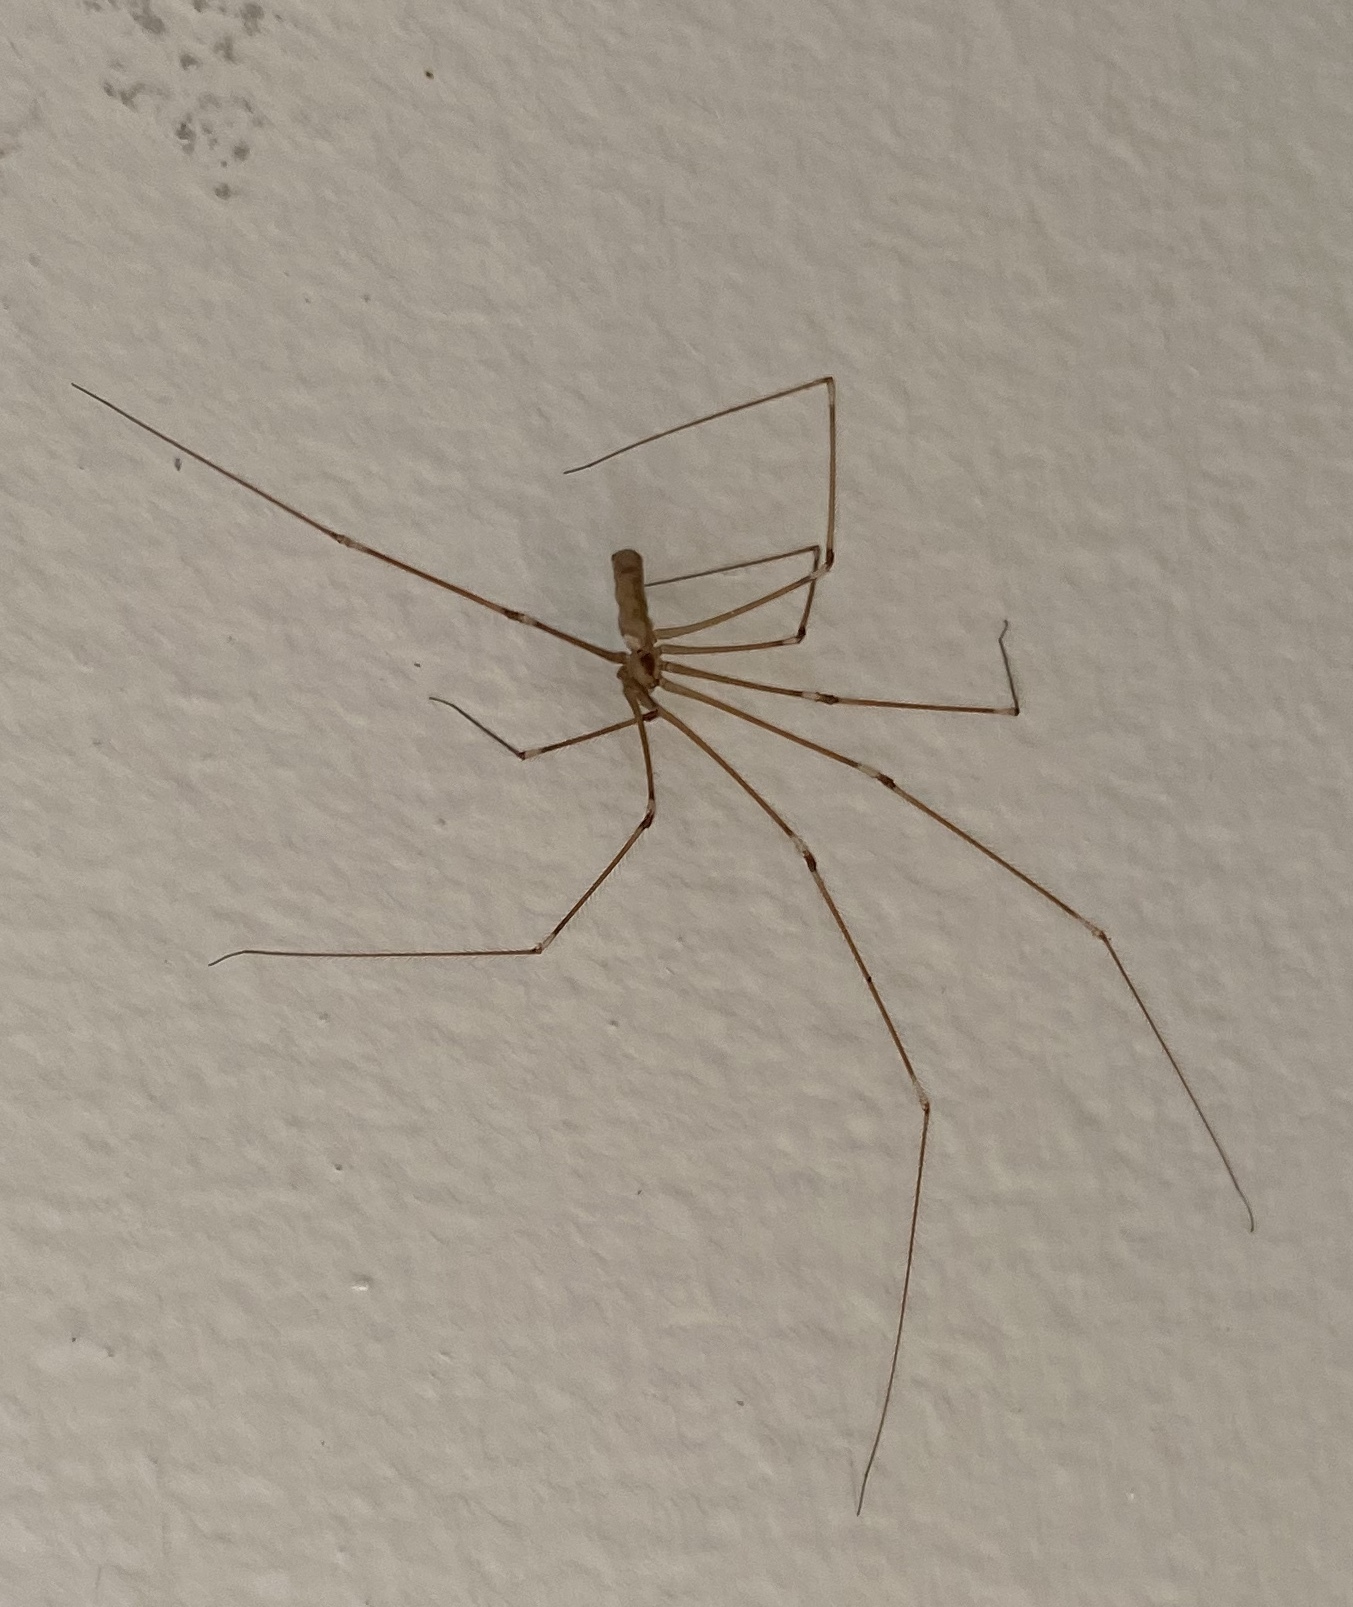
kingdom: Animalia
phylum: Arthropoda
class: Arachnida
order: Araneae
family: Pholcidae
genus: Pholcus
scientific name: Pholcus phalangioides
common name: Longbodied cellar spider
